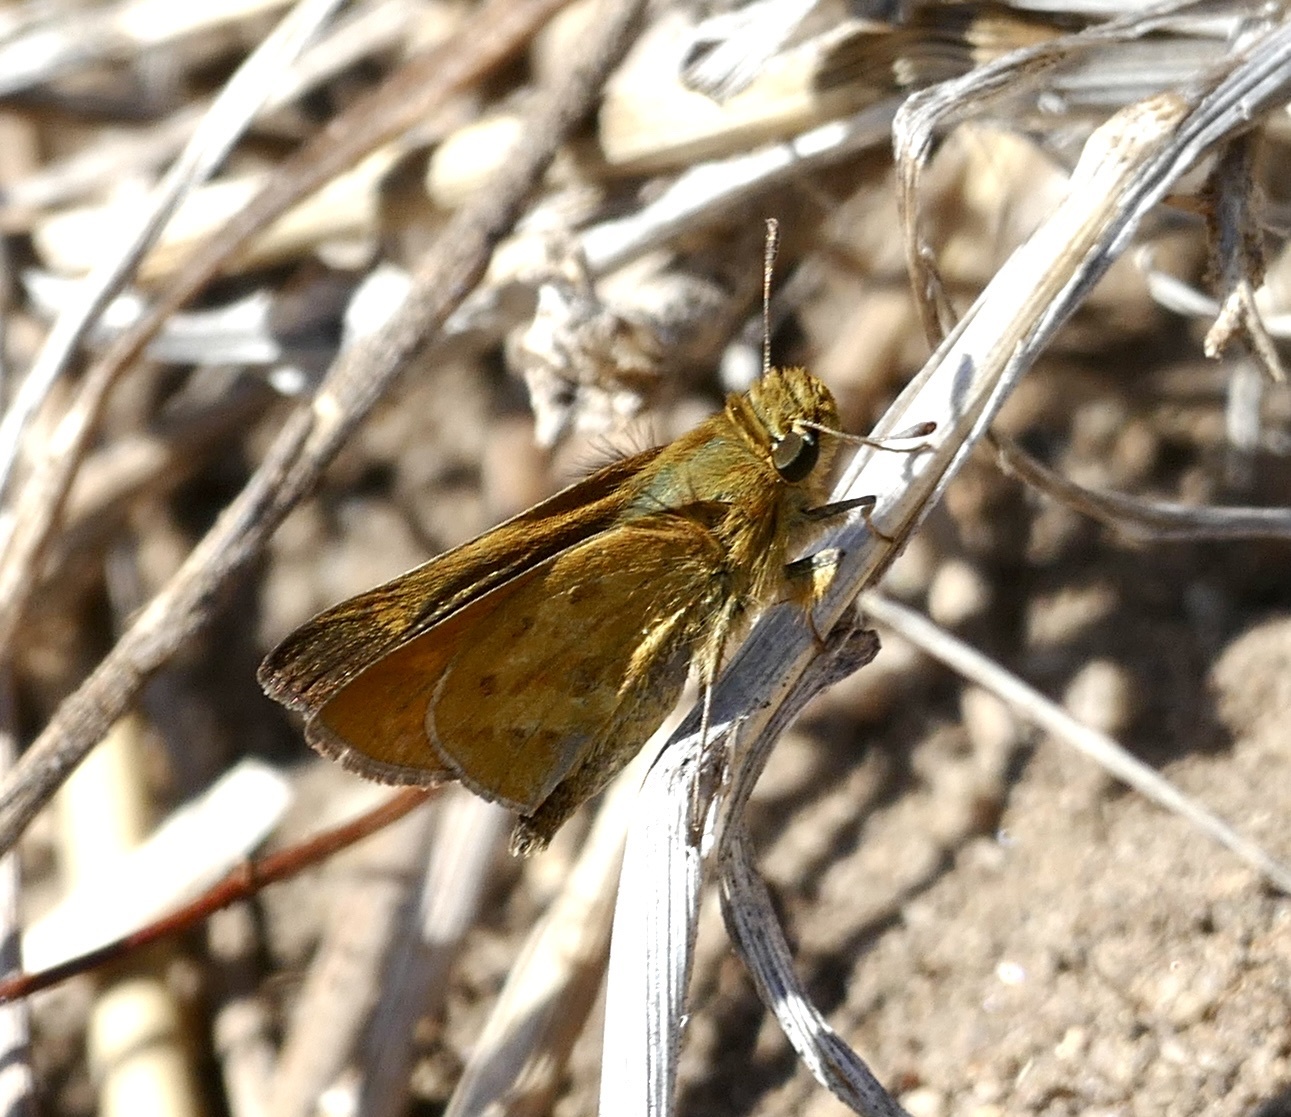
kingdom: Animalia
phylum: Arthropoda
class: Insecta
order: Lepidoptera
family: Hesperiidae
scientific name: Hesperiidae
